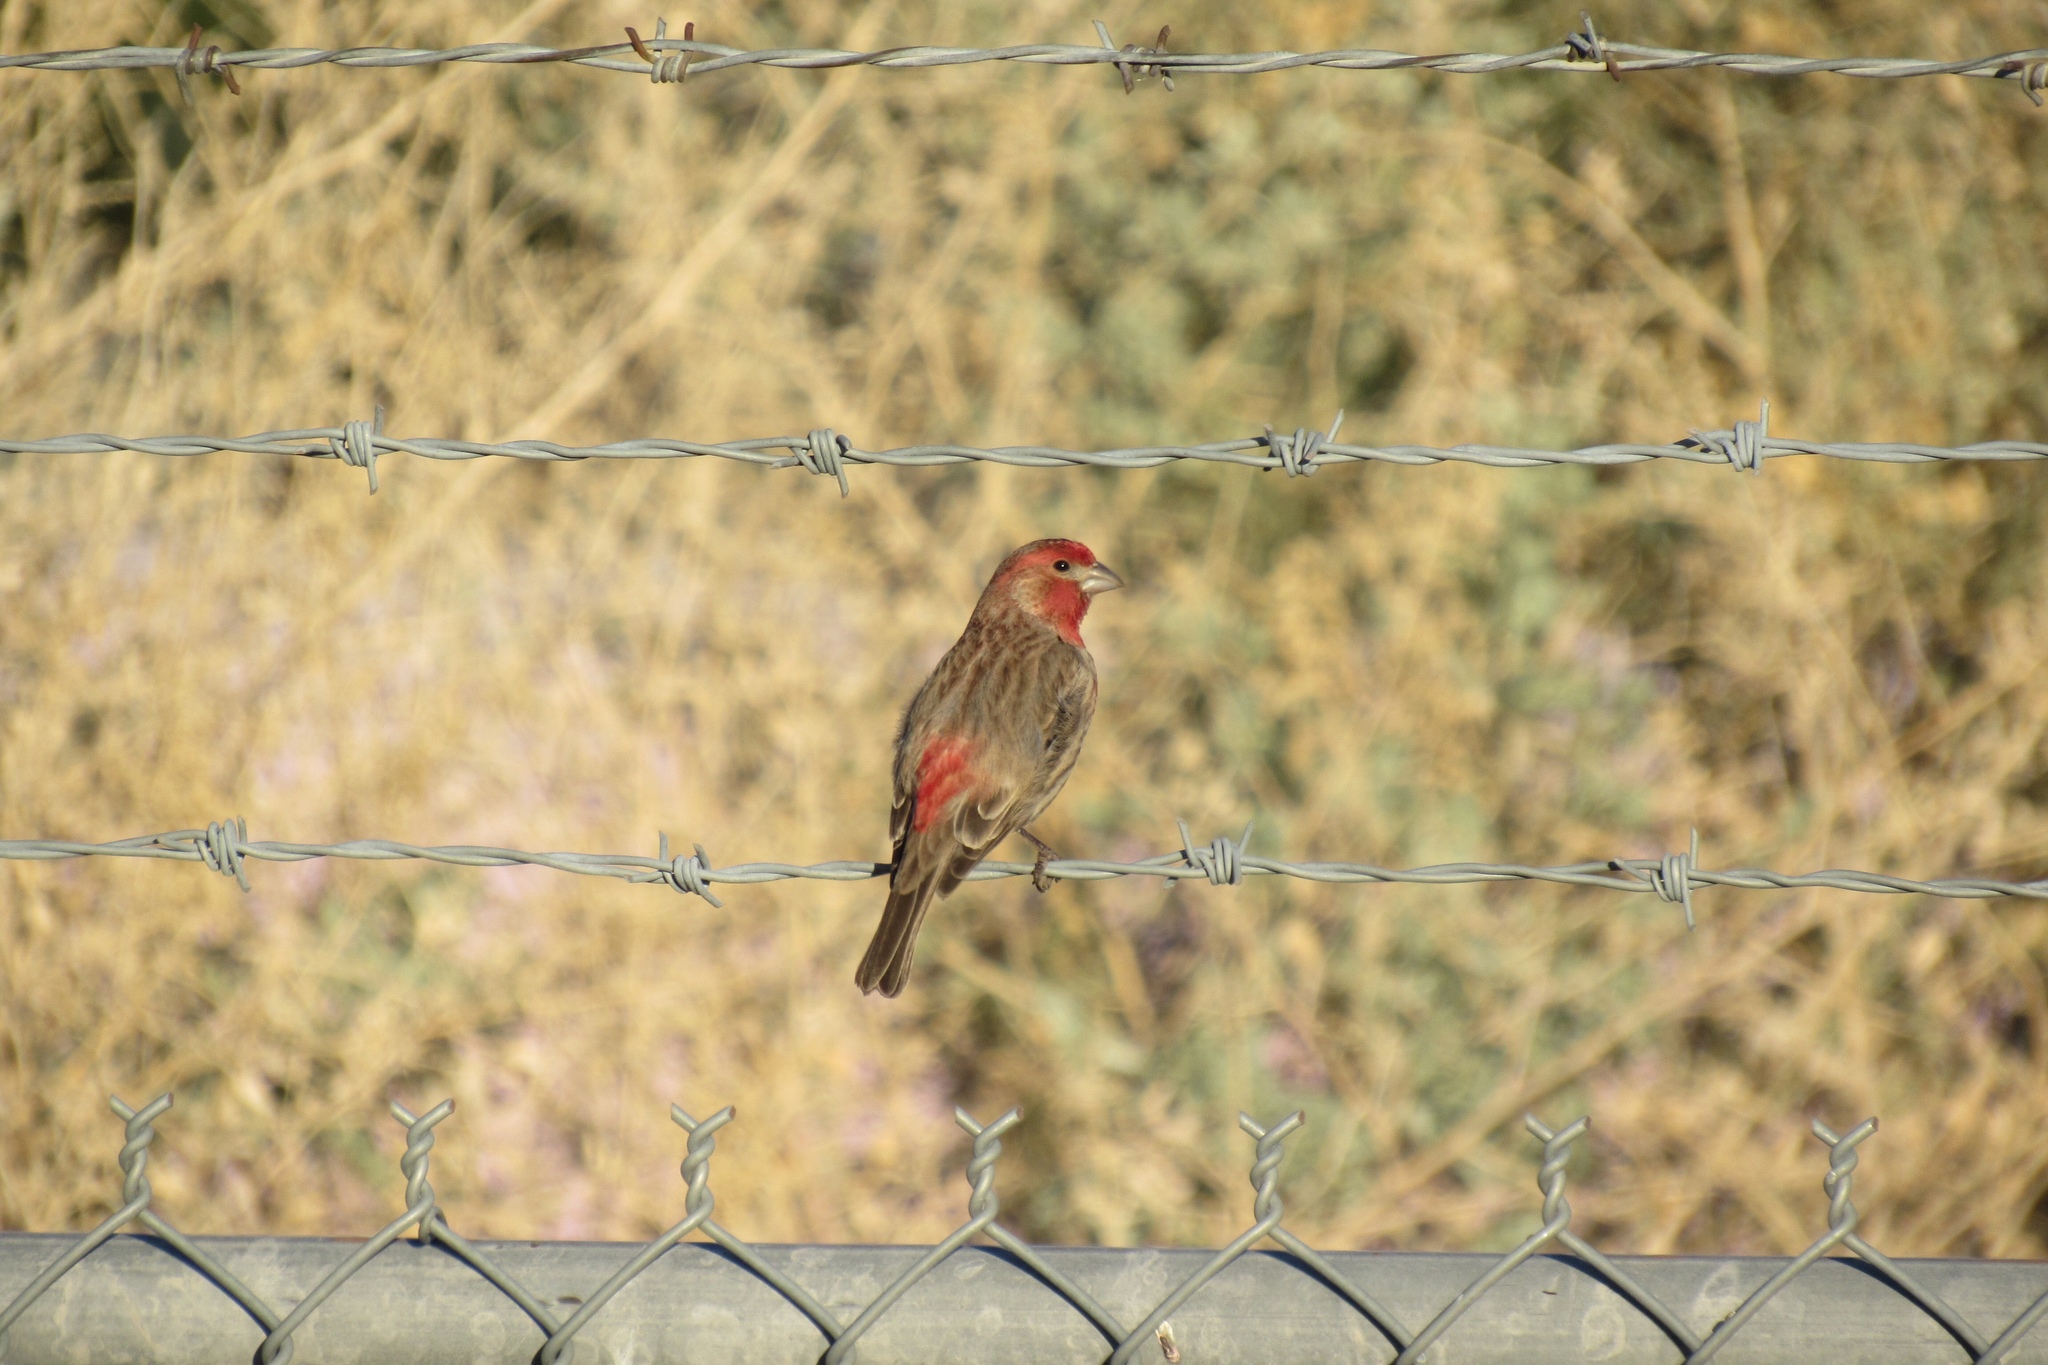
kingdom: Animalia
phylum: Chordata
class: Aves
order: Passeriformes
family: Fringillidae
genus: Haemorhous
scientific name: Haemorhous mexicanus
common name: House finch
